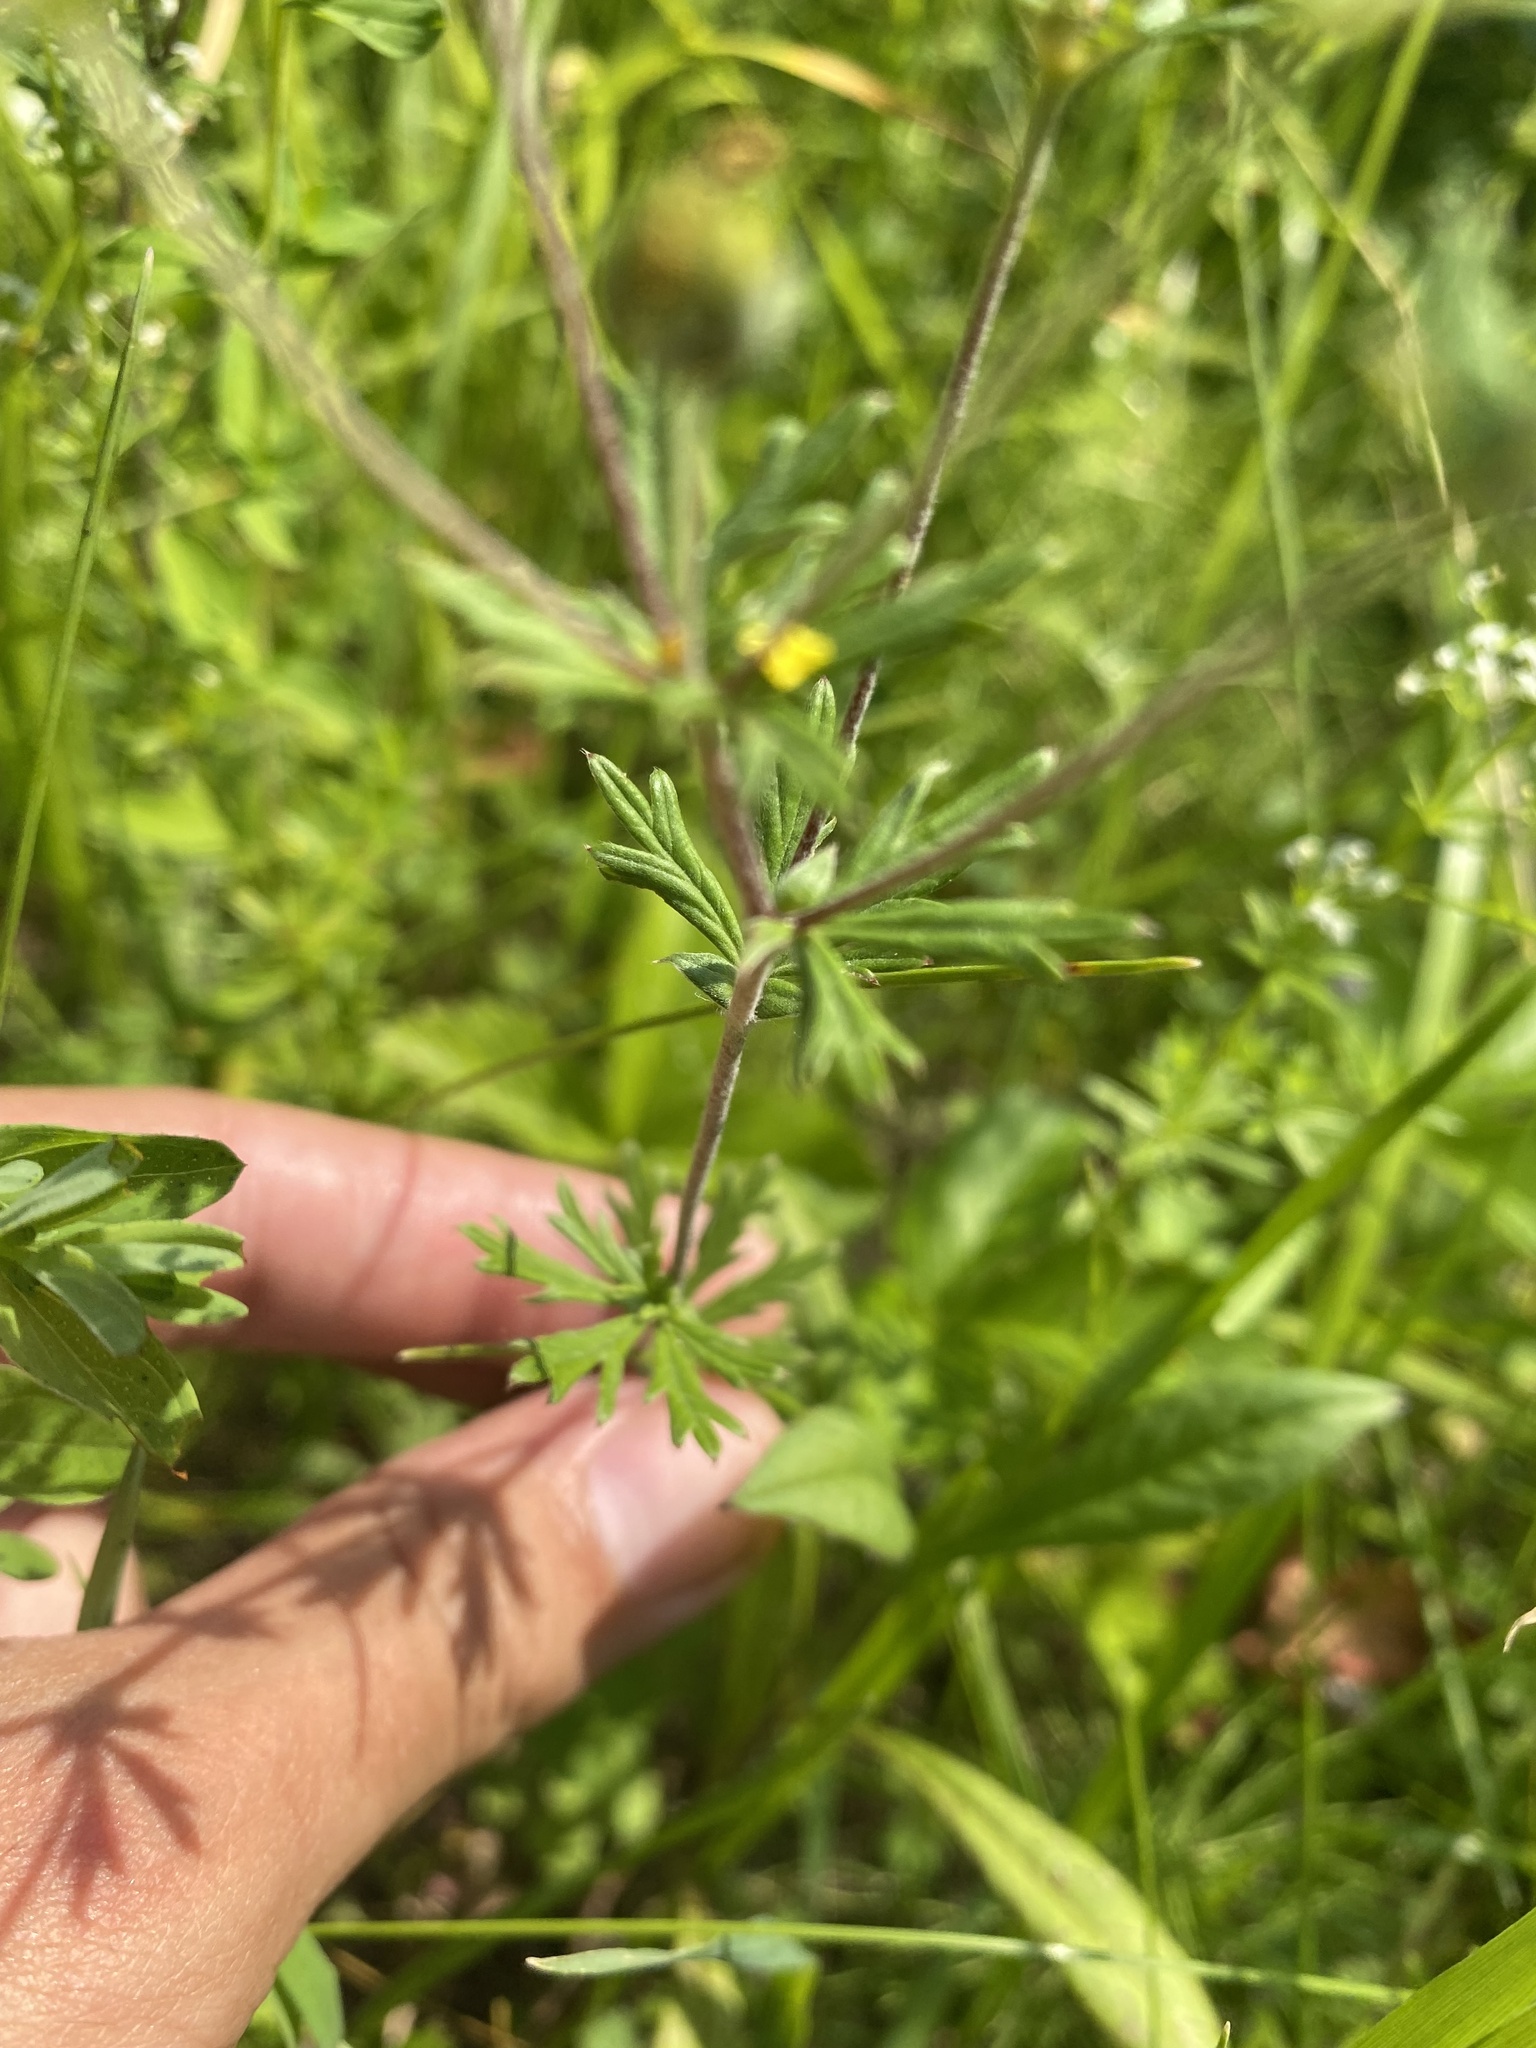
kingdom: Plantae
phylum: Tracheophyta
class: Magnoliopsida
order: Rosales
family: Rosaceae
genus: Potentilla
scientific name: Potentilla argentea
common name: Hoary cinquefoil
